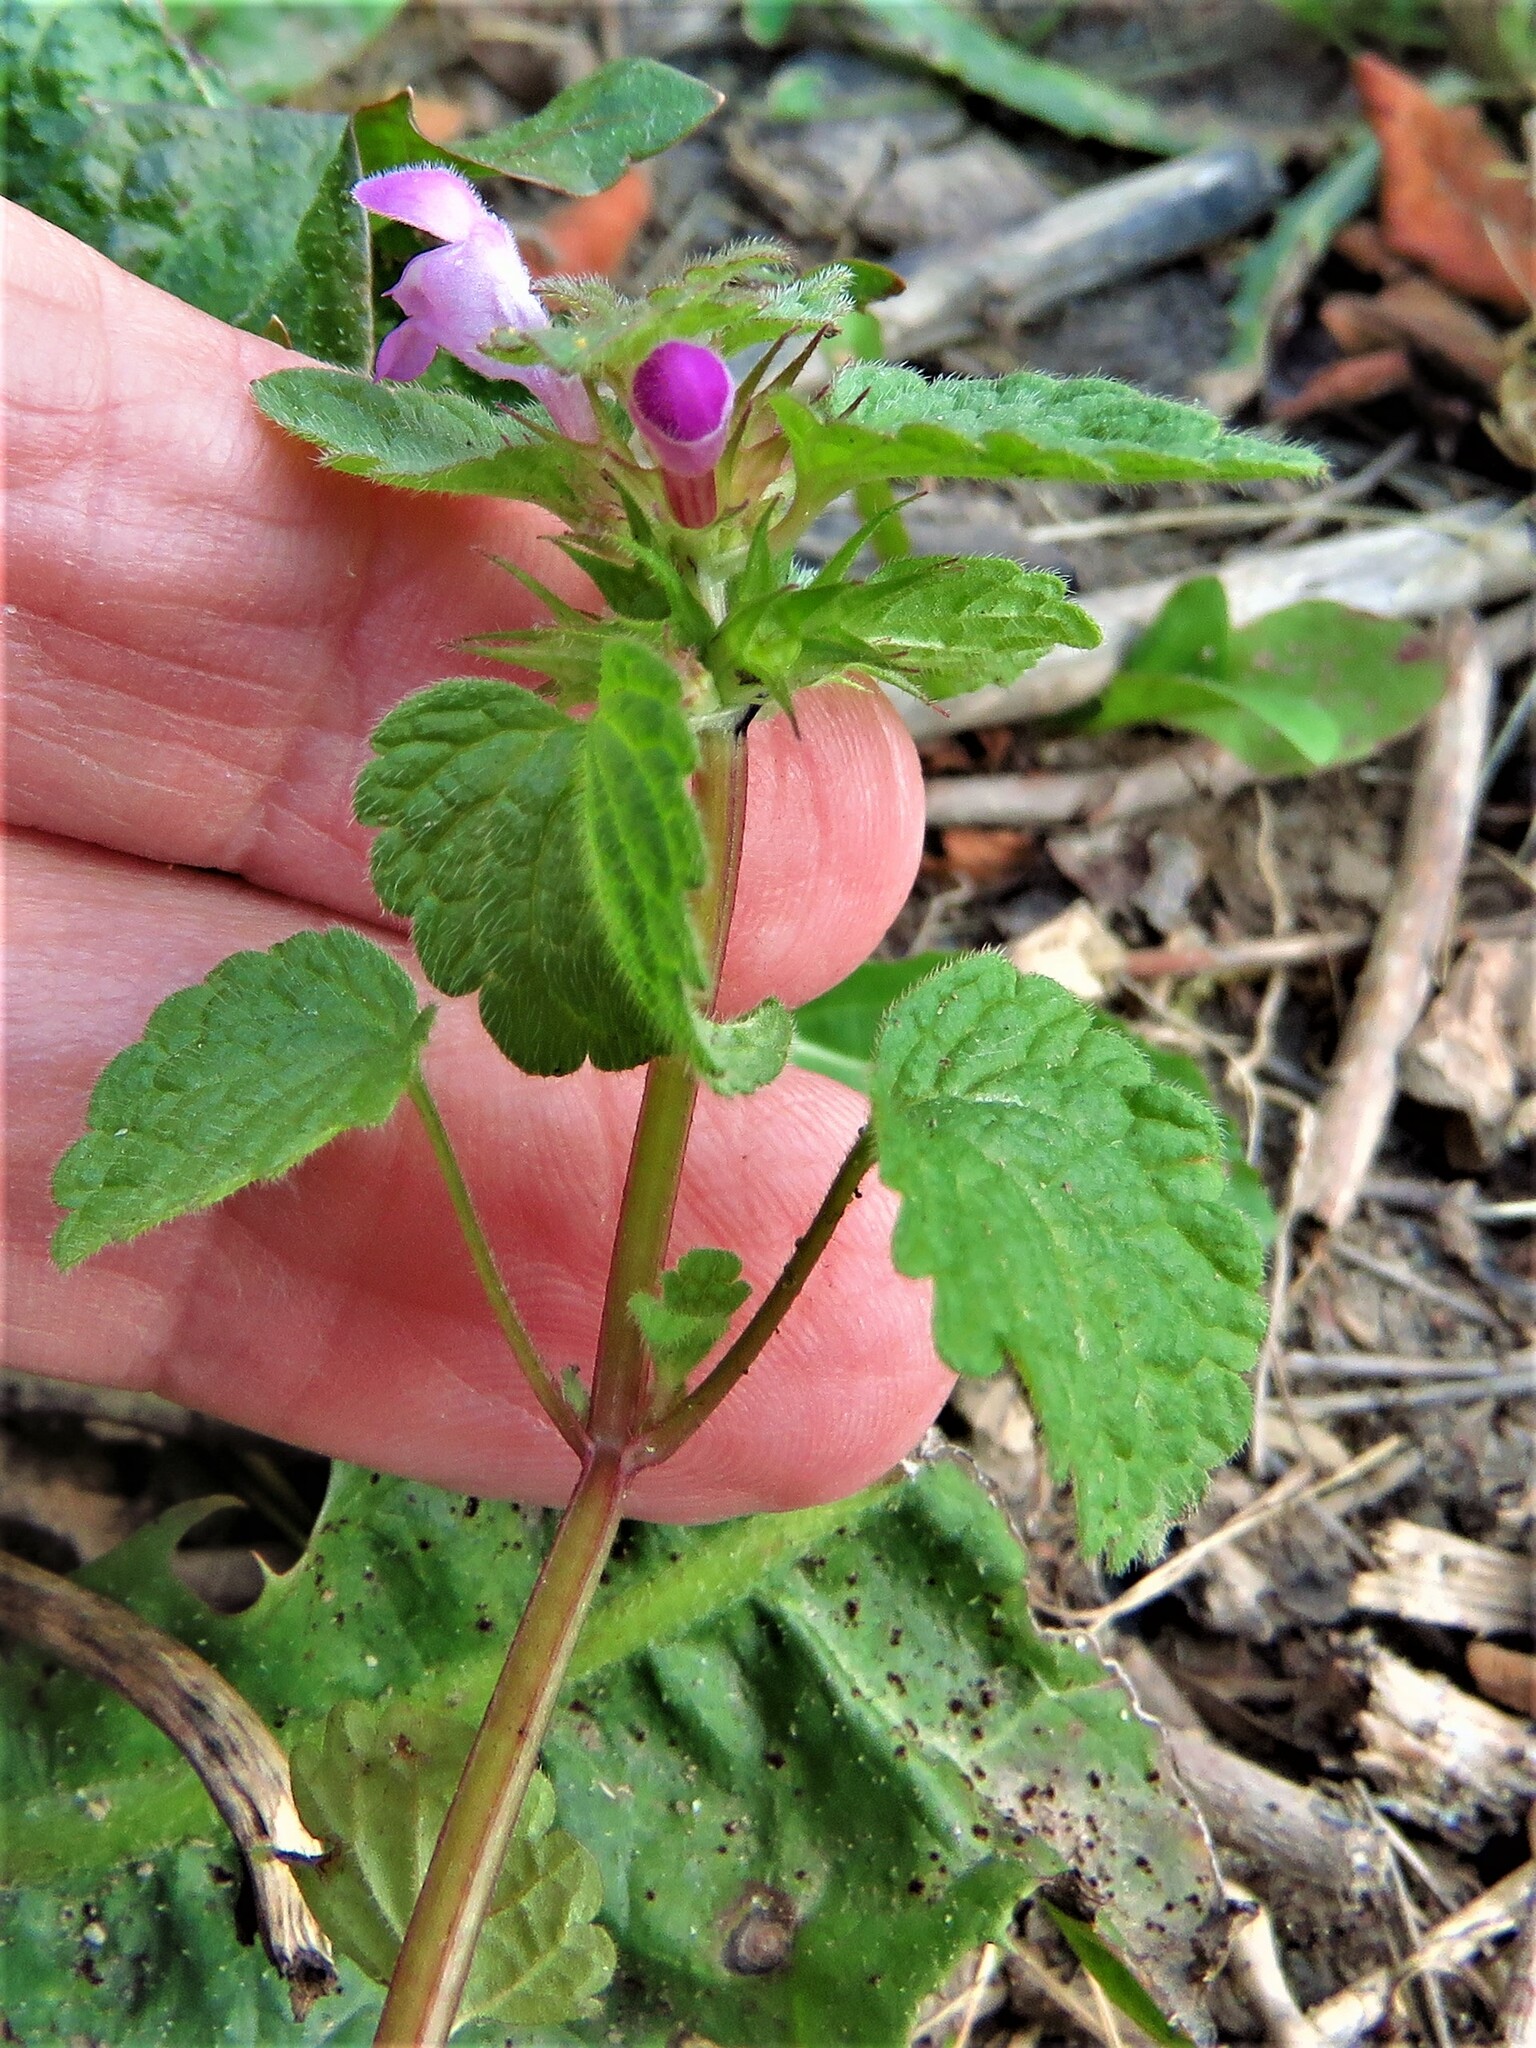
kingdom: Plantae
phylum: Tracheophyta
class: Magnoliopsida
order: Lamiales
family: Lamiaceae
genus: Lamium
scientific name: Lamium purpureum
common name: Red dead-nettle
